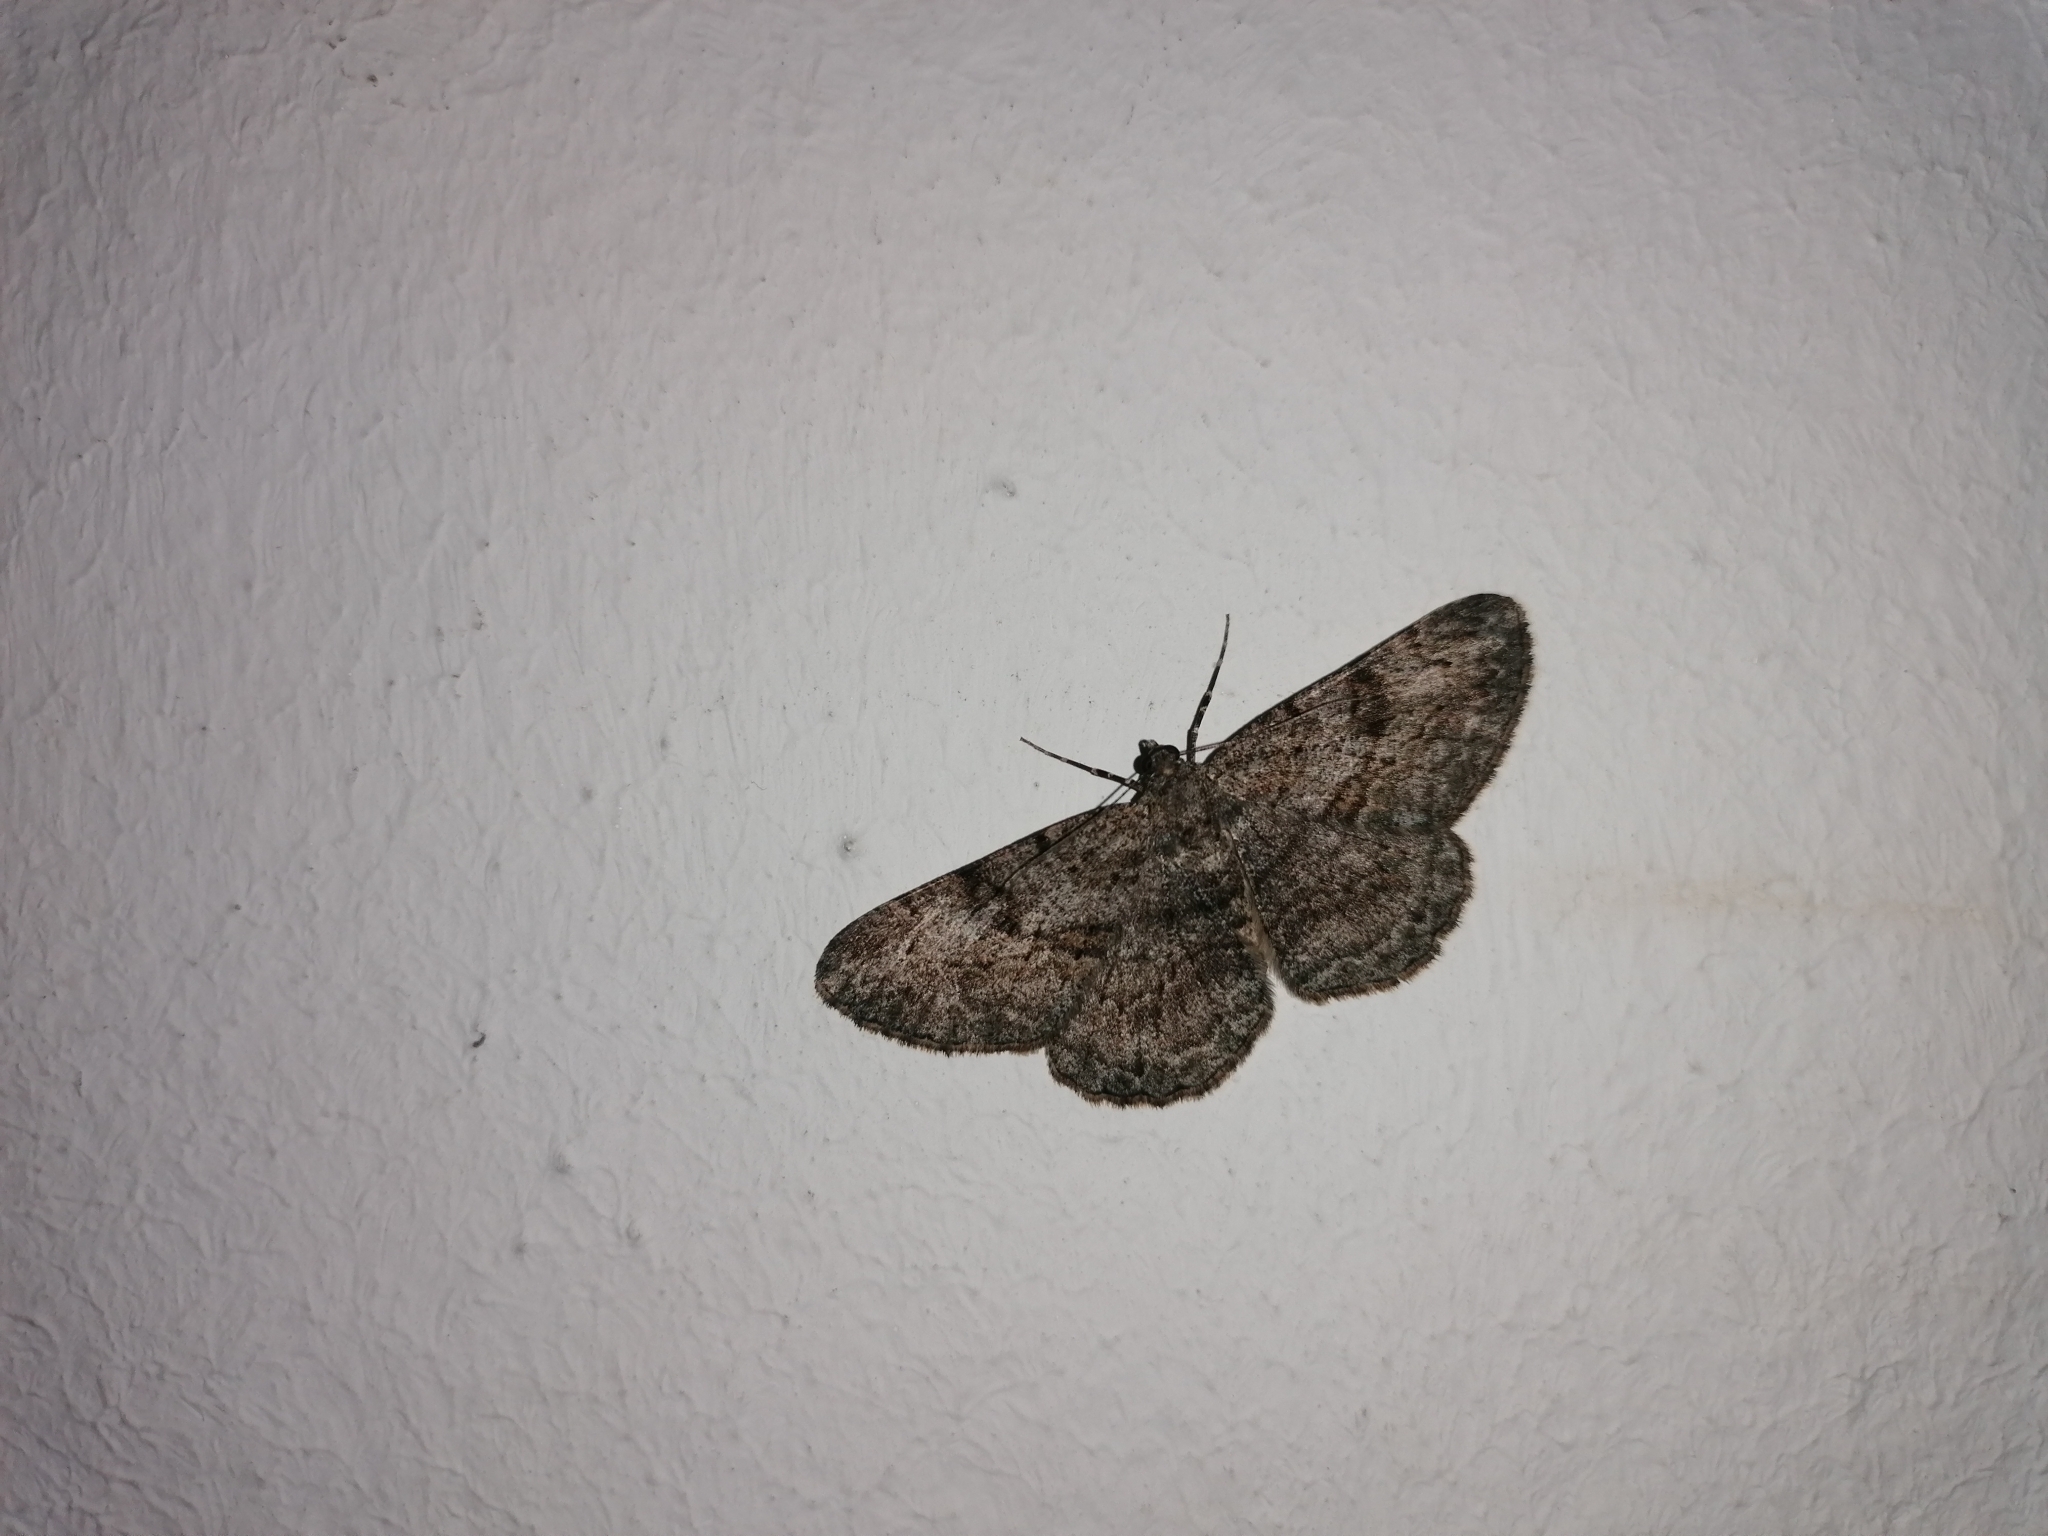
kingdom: Animalia
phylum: Arthropoda
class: Insecta
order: Lepidoptera
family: Geometridae
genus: Peribatodes
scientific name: Peribatodes rhomboidaria
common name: Willow beauty
